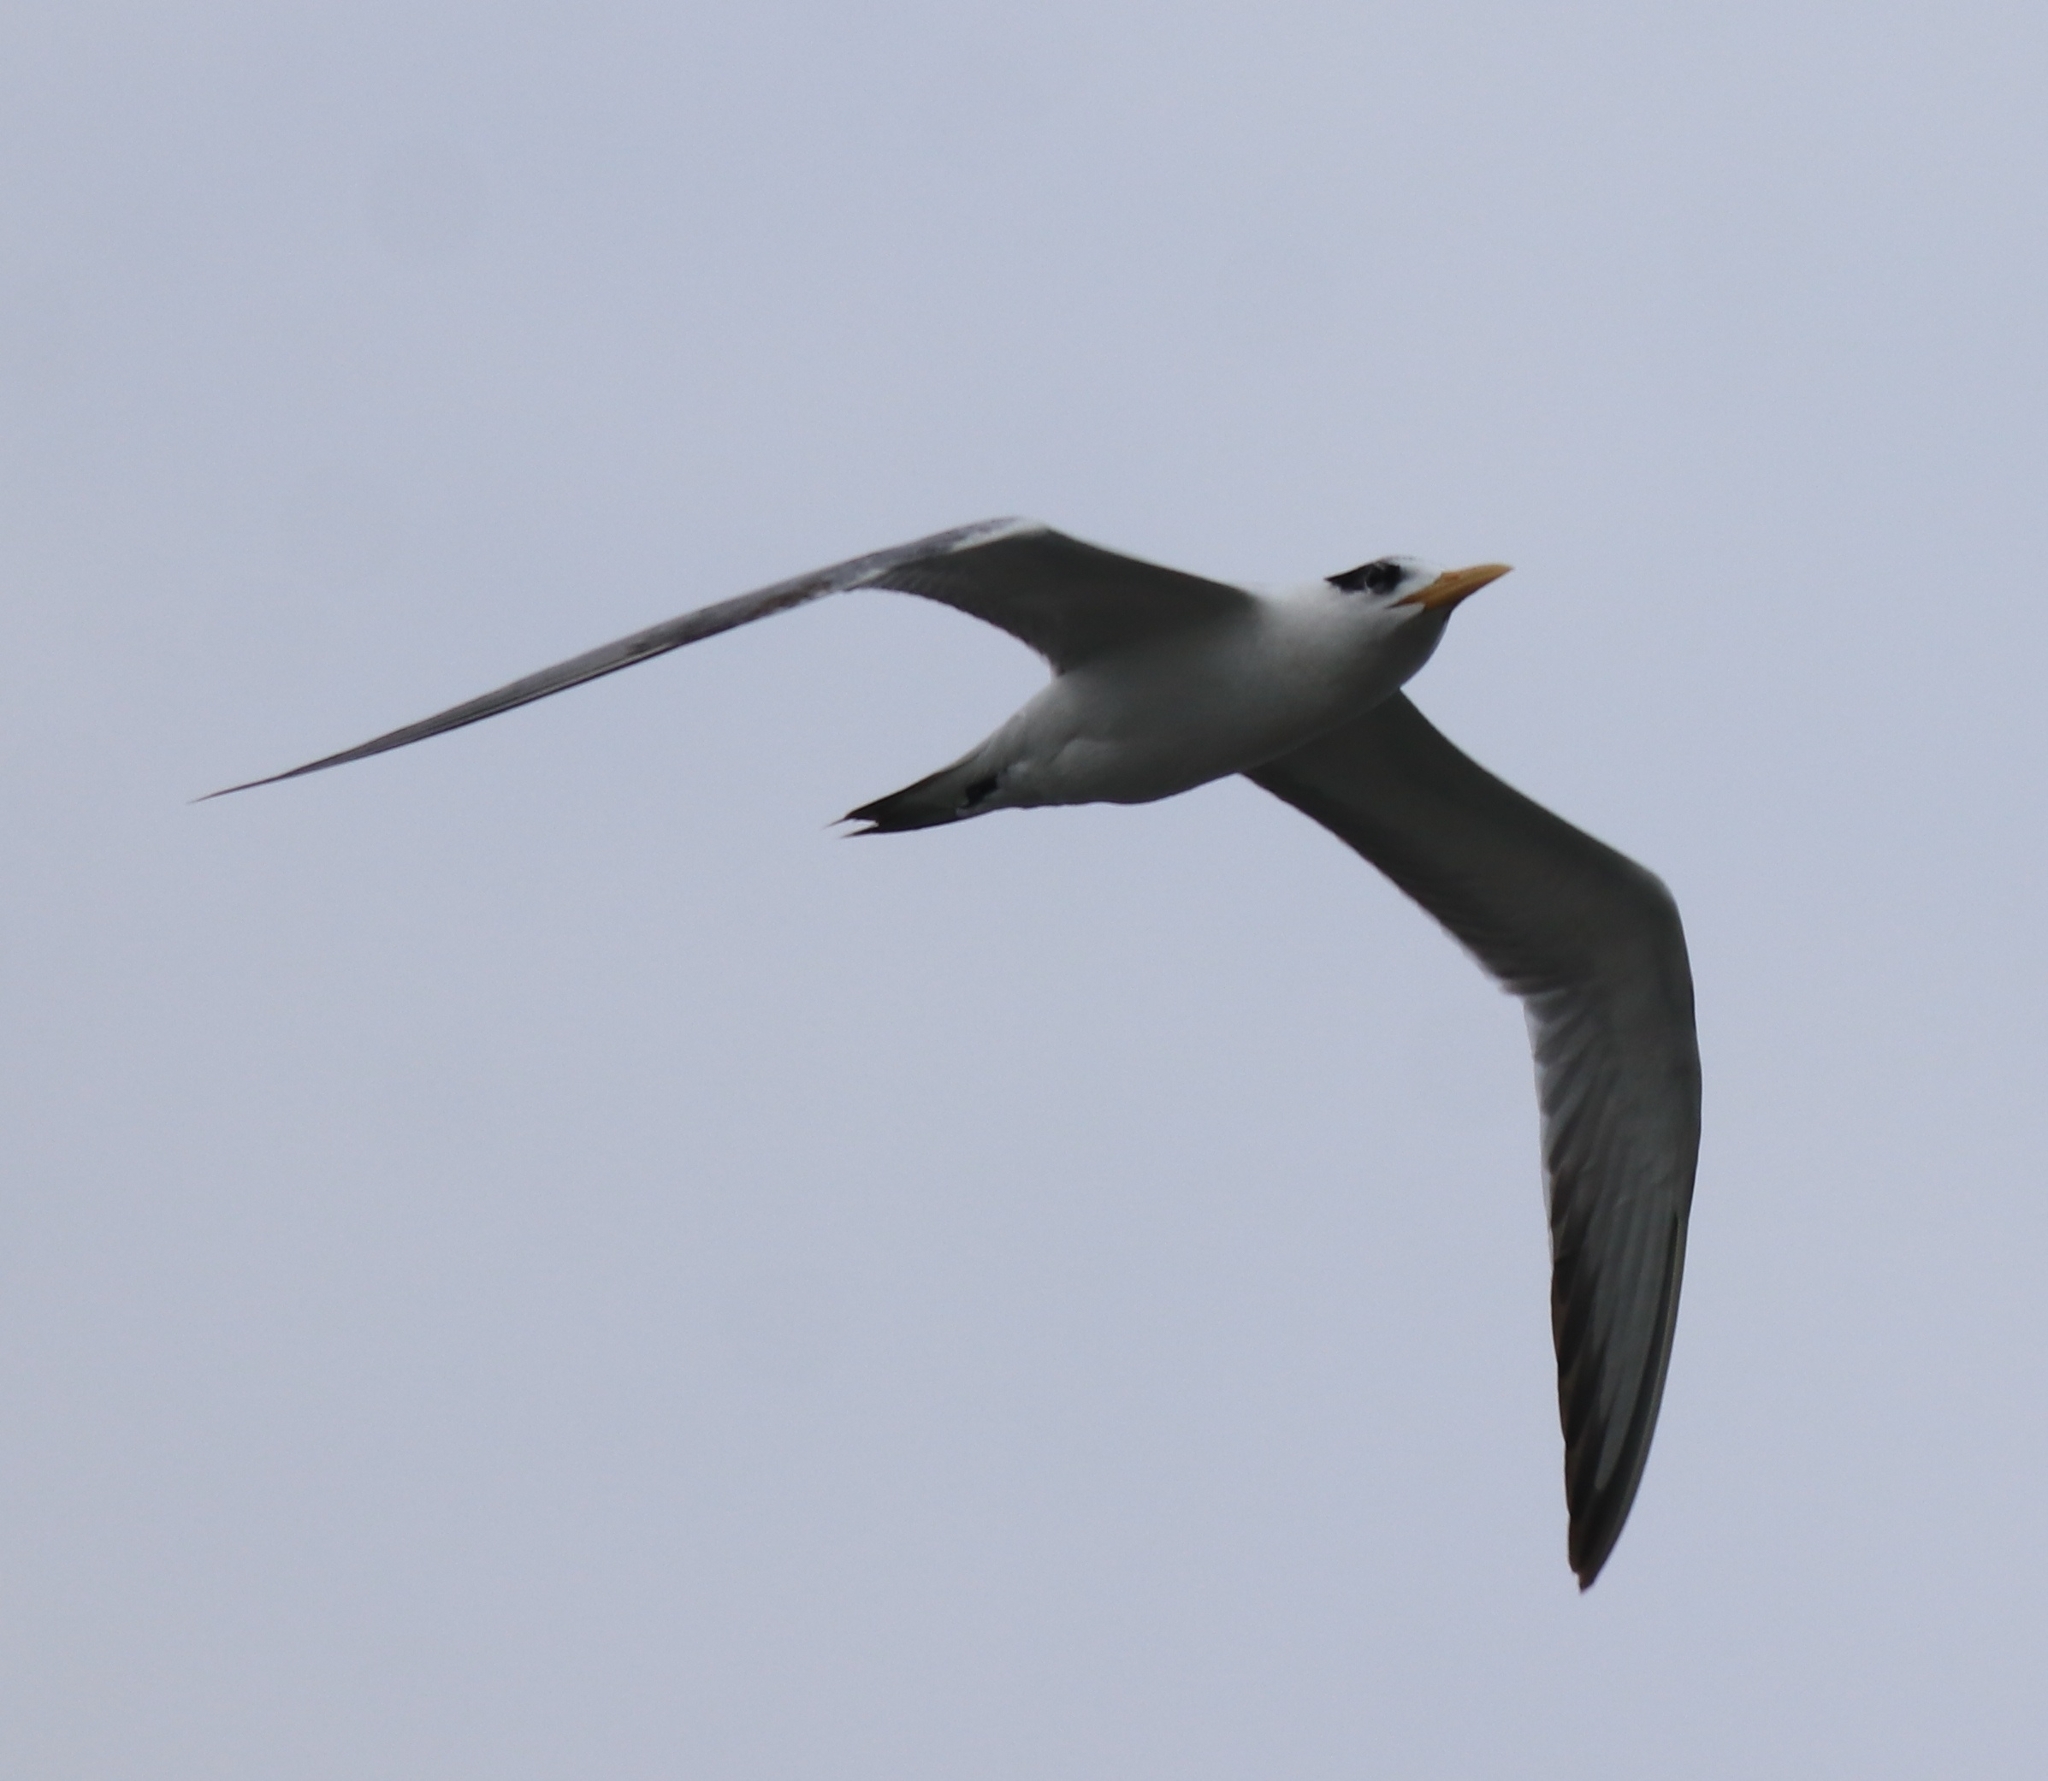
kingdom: Animalia
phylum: Chordata
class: Aves
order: Charadriiformes
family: Laridae
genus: Thalasseus
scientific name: Thalasseus bengalensis
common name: Lesser crested tern
